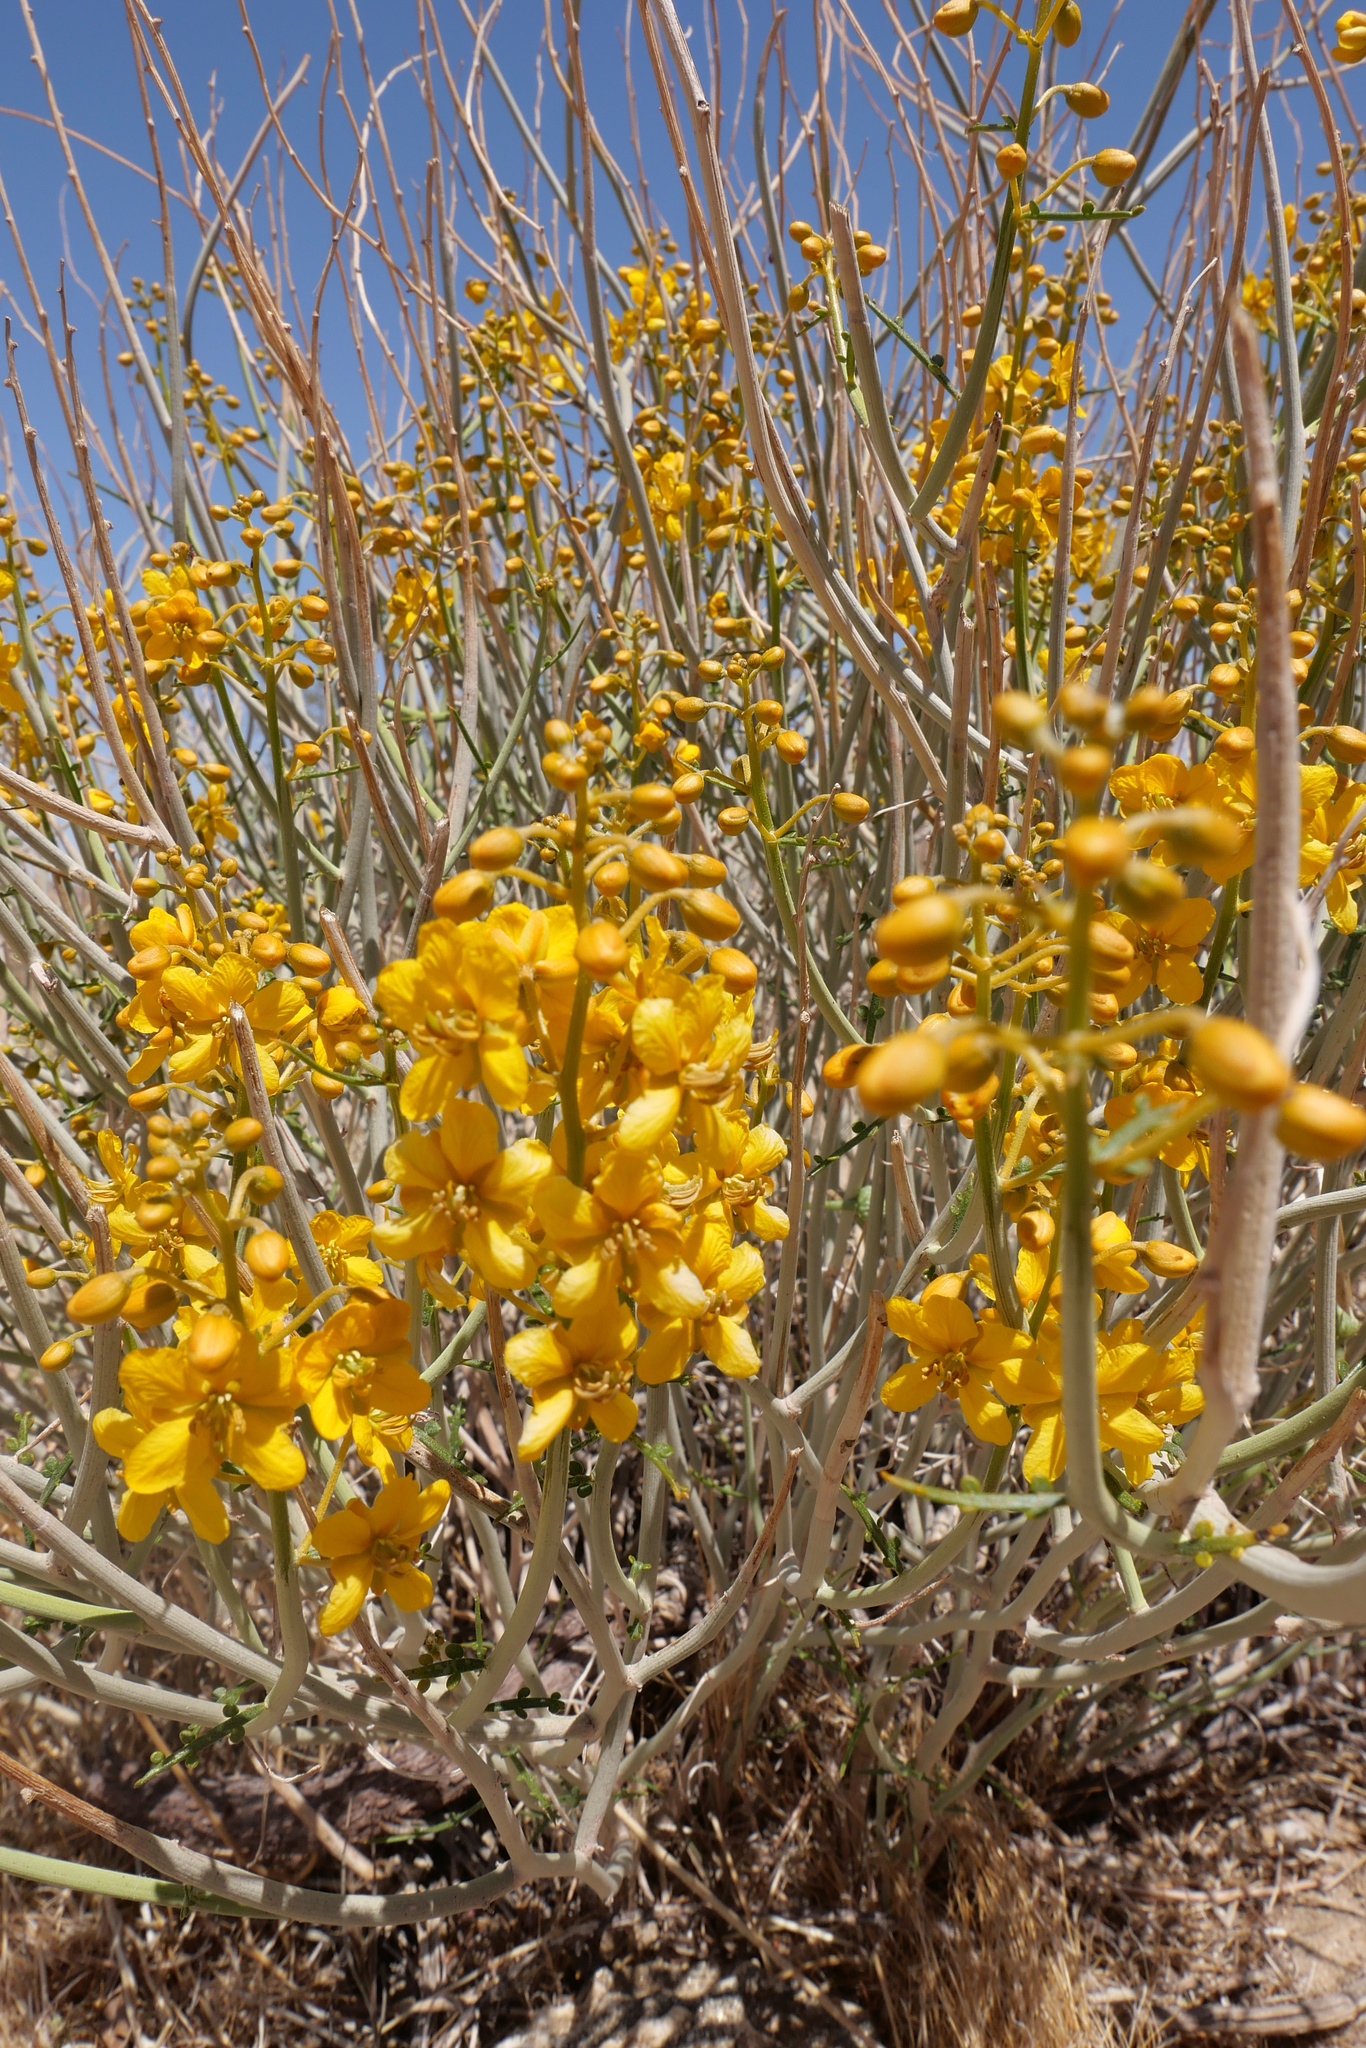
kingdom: Plantae
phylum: Tracheophyta
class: Magnoliopsida
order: Fabales
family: Fabaceae
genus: Senna
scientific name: Senna armata
